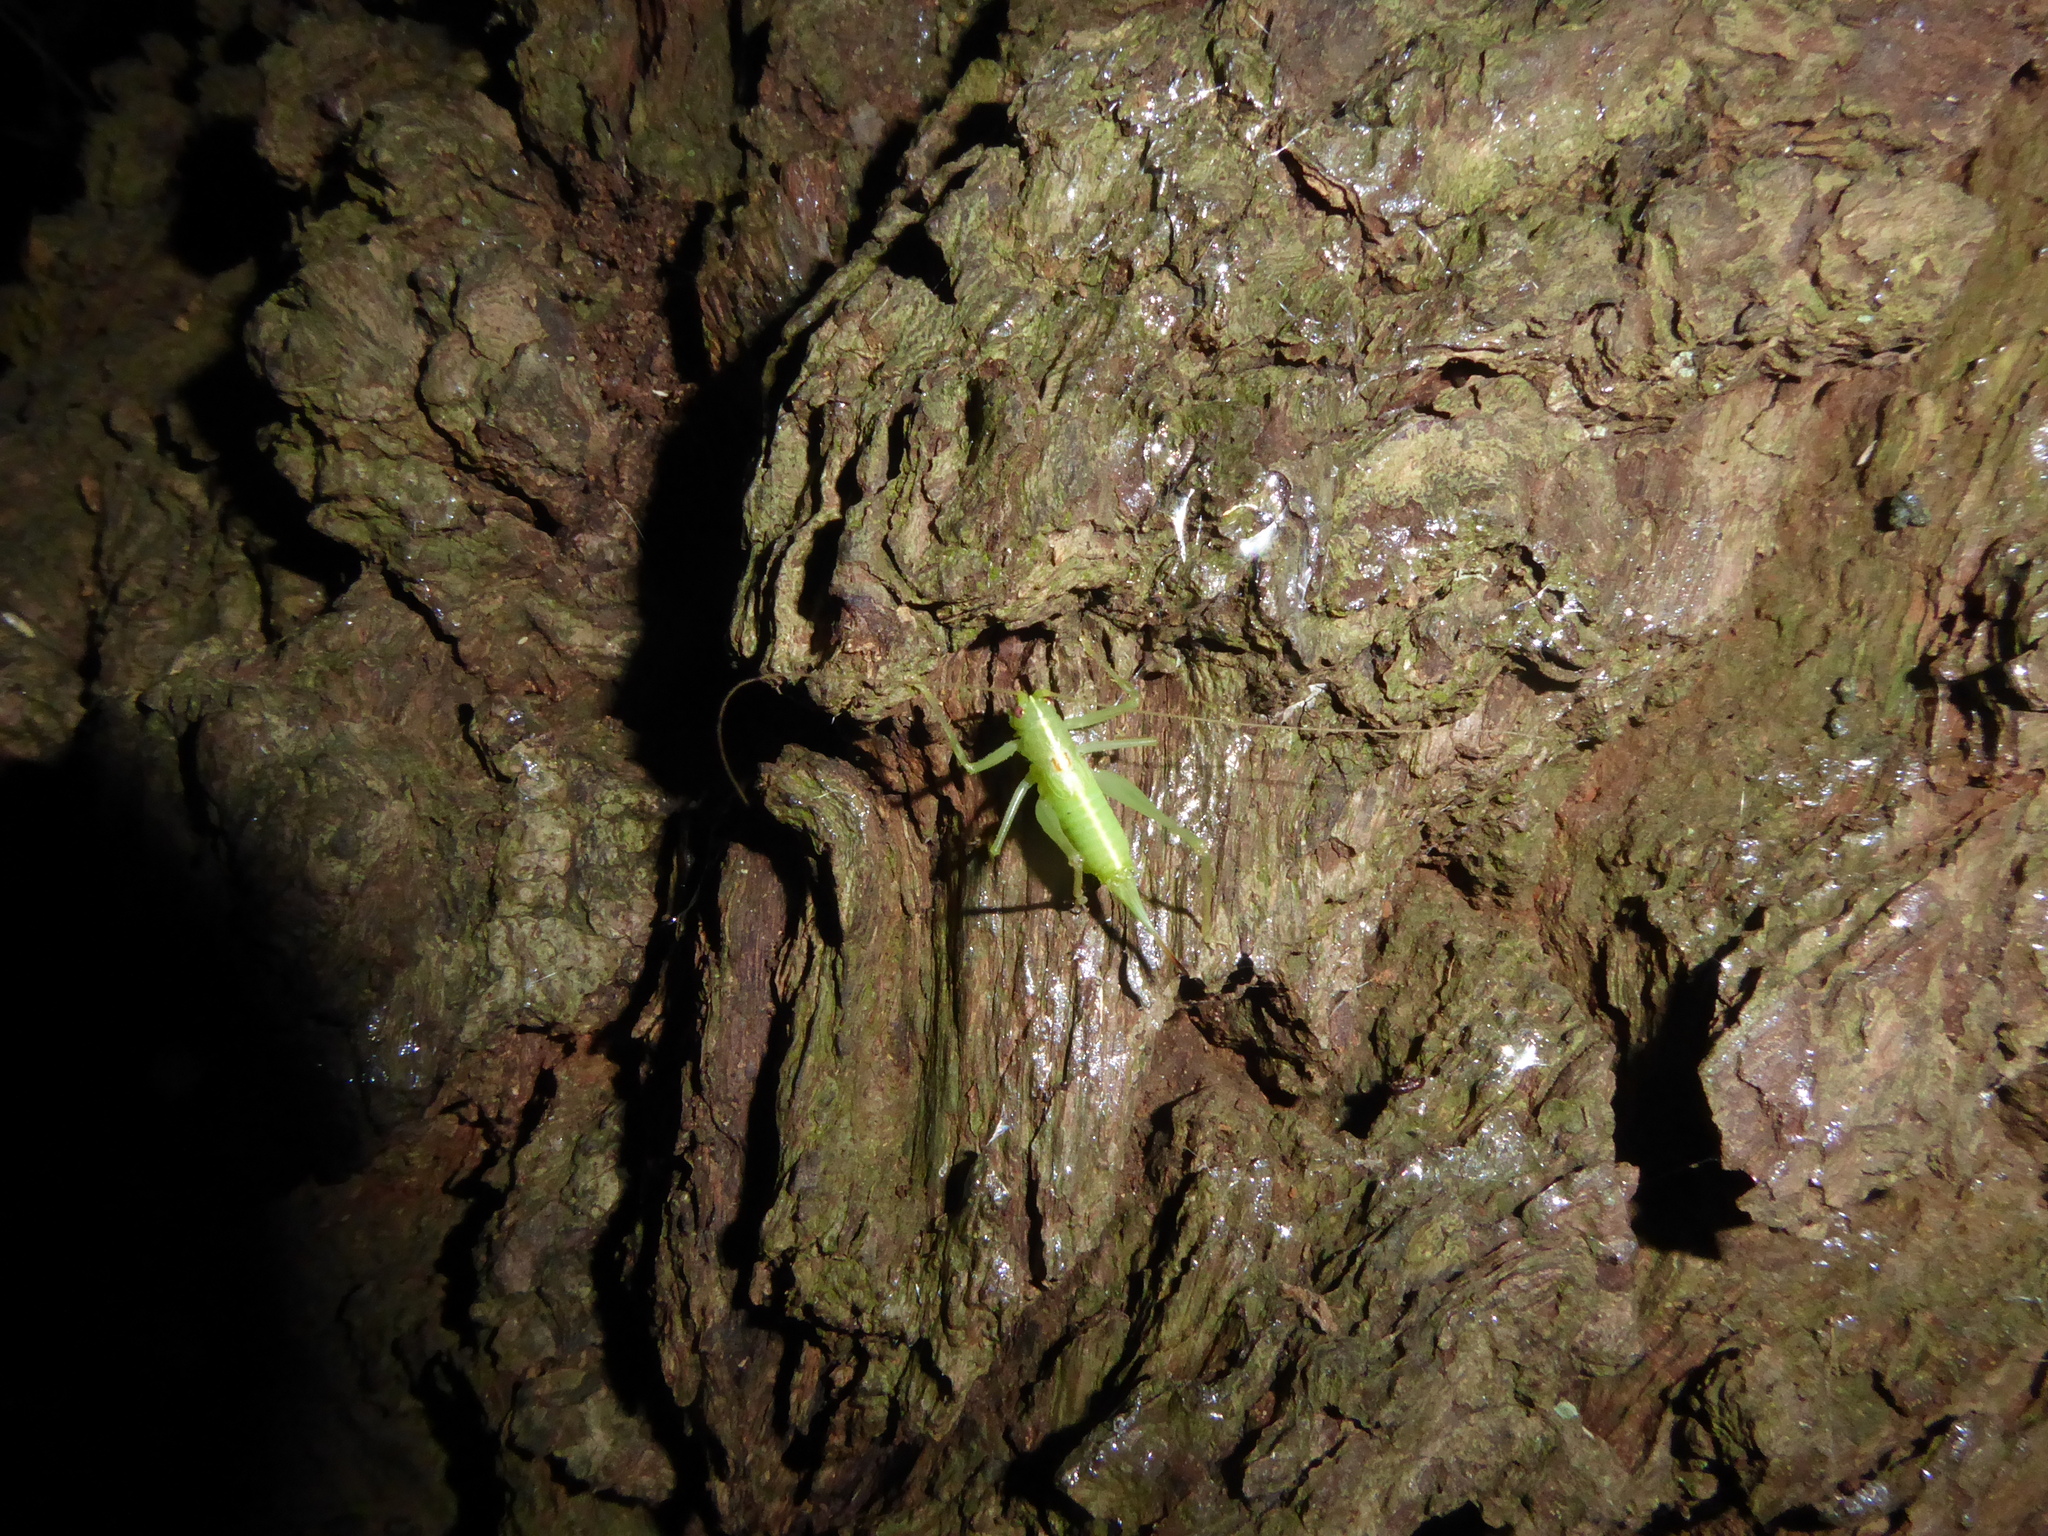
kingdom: Animalia
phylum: Arthropoda
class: Insecta
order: Orthoptera
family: Tettigoniidae
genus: Meconema
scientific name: Meconema meridionale
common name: Southern oak bush-cricket
